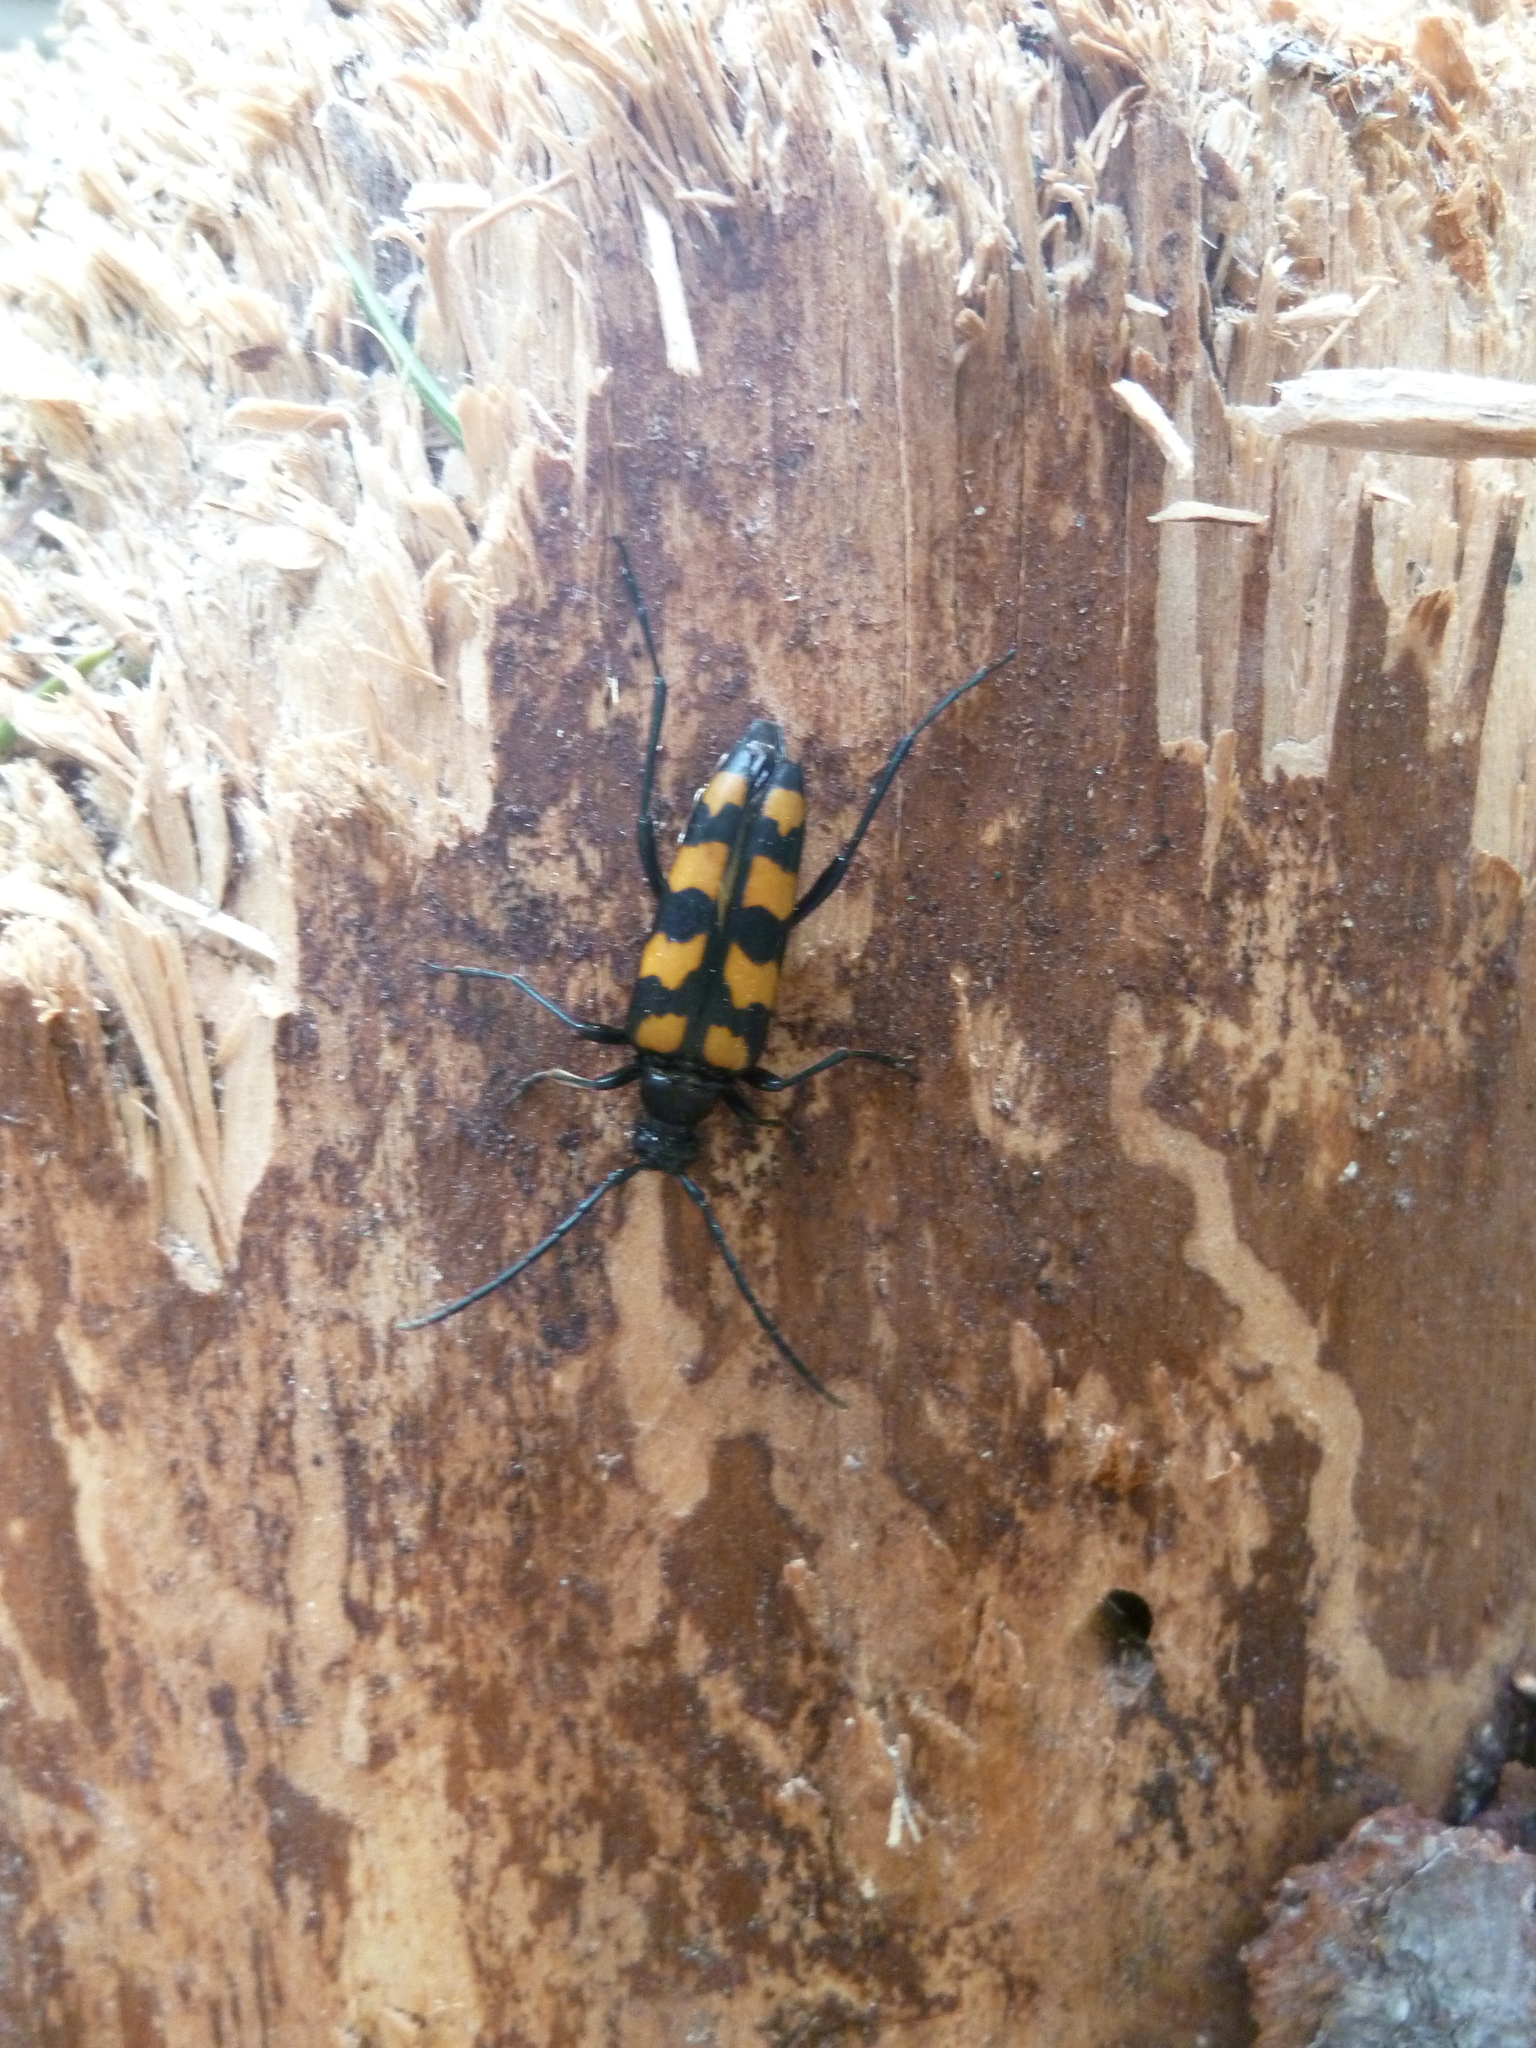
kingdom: Animalia
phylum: Arthropoda
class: Insecta
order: Coleoptera
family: Cerambycidae
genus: Leptura
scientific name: Leptura quadrifasciata
